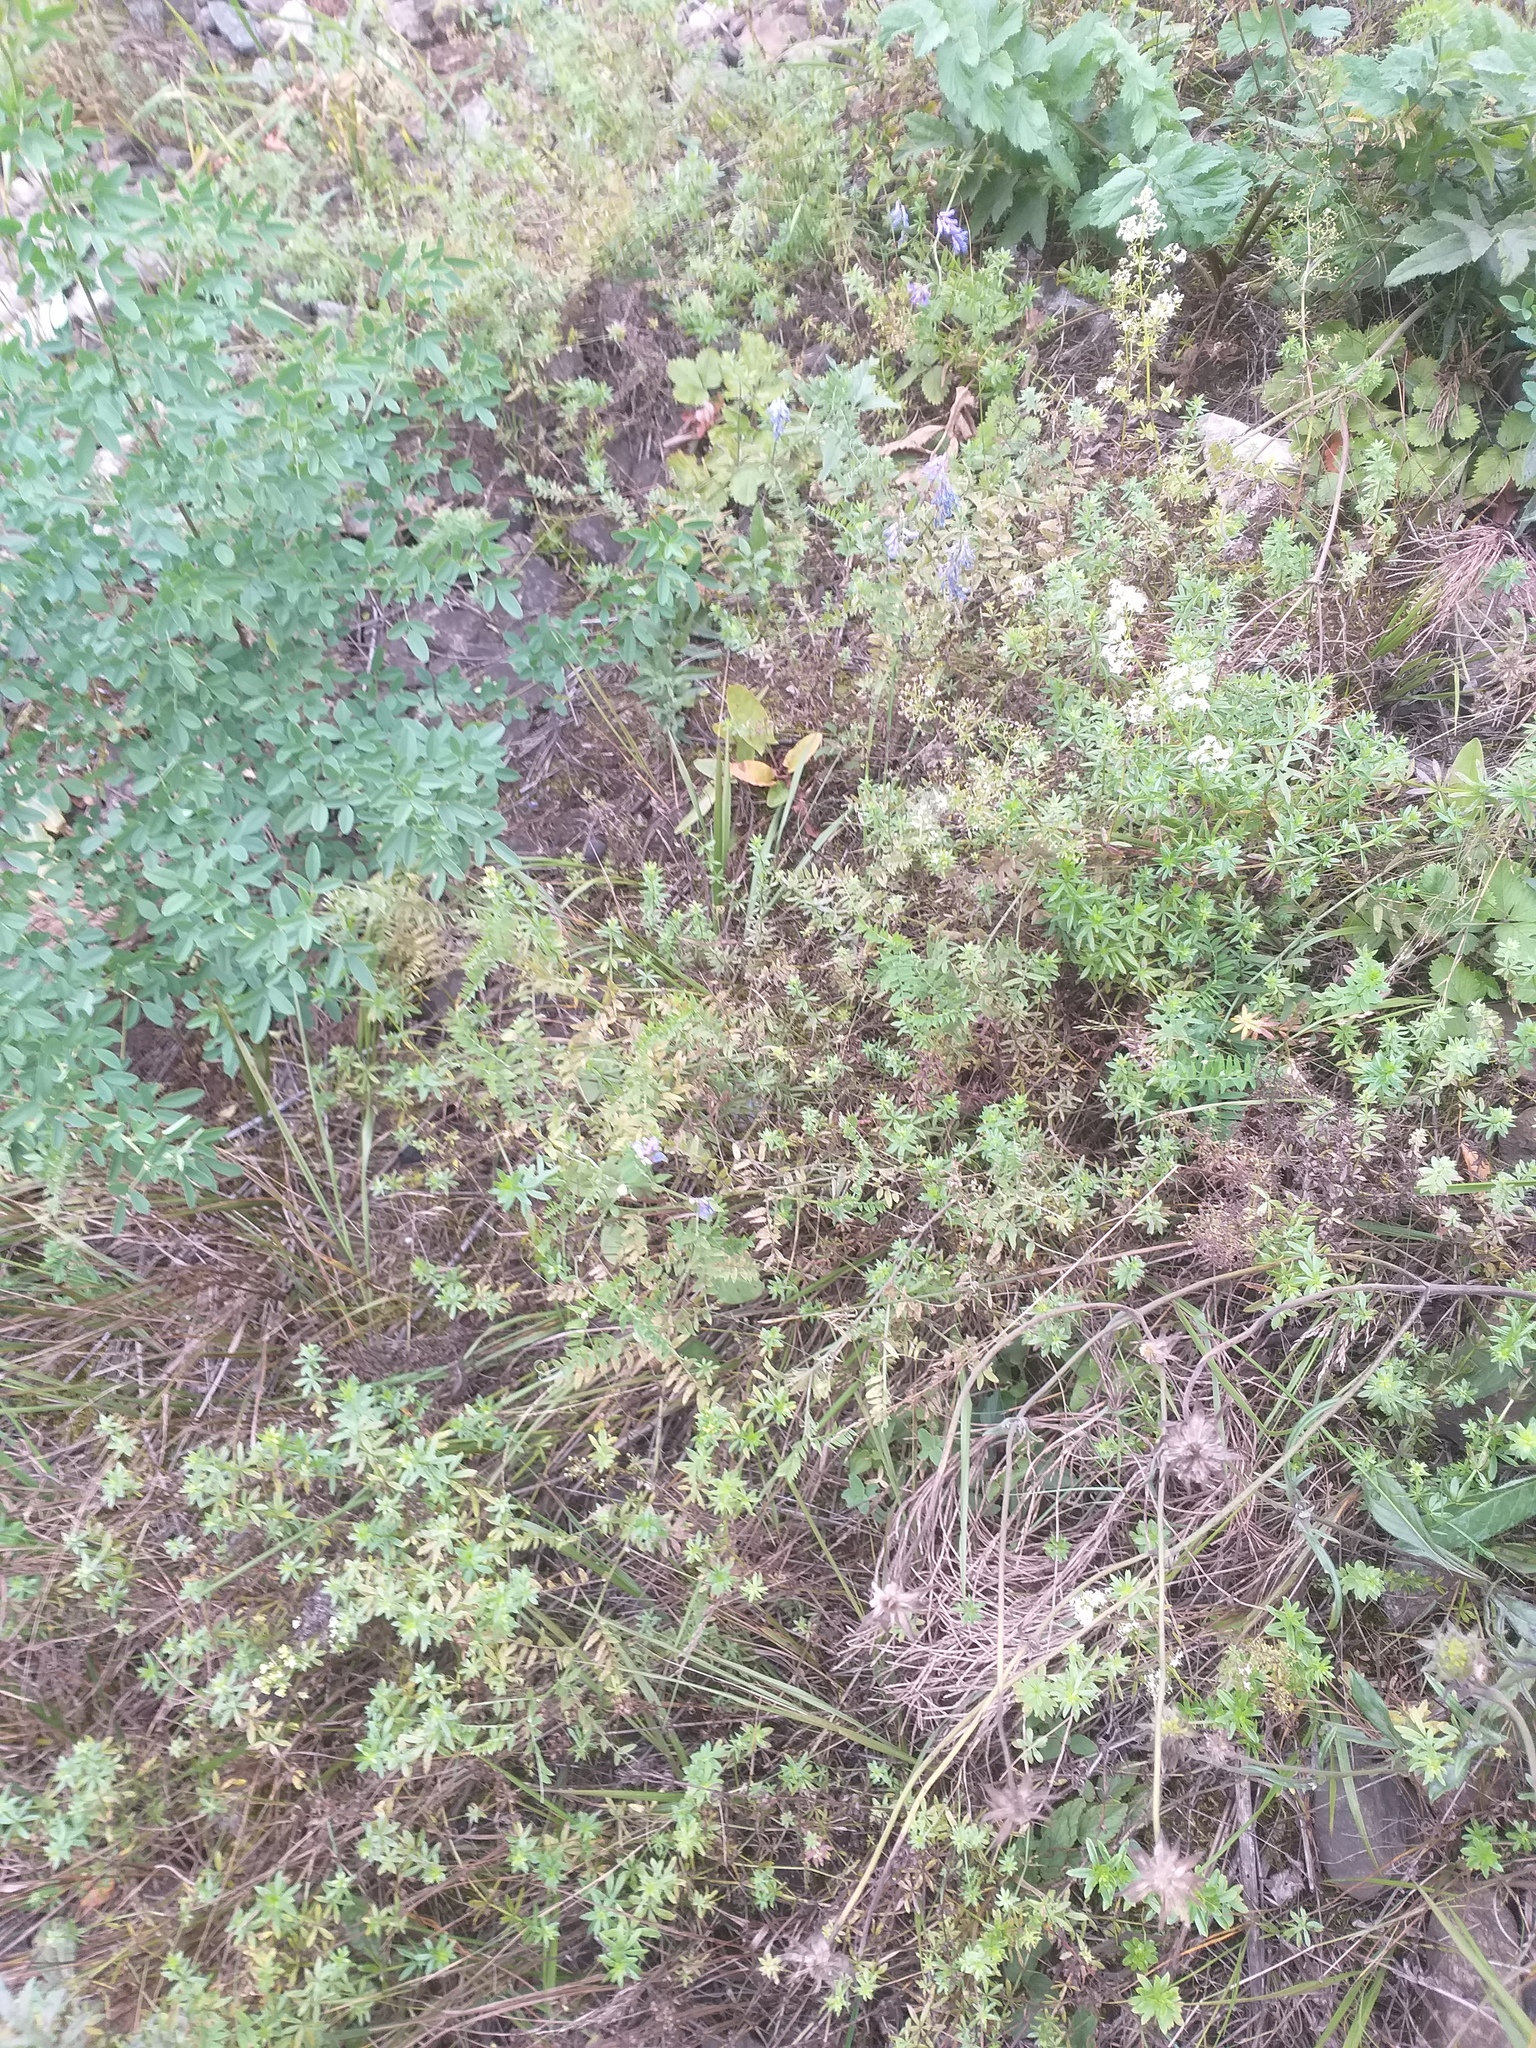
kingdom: Plantae
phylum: Tracheophyta
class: Magnoliopsida
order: Fabales
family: Fabaceae
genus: Vicia
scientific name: Vicia cracca
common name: Bird vetch
